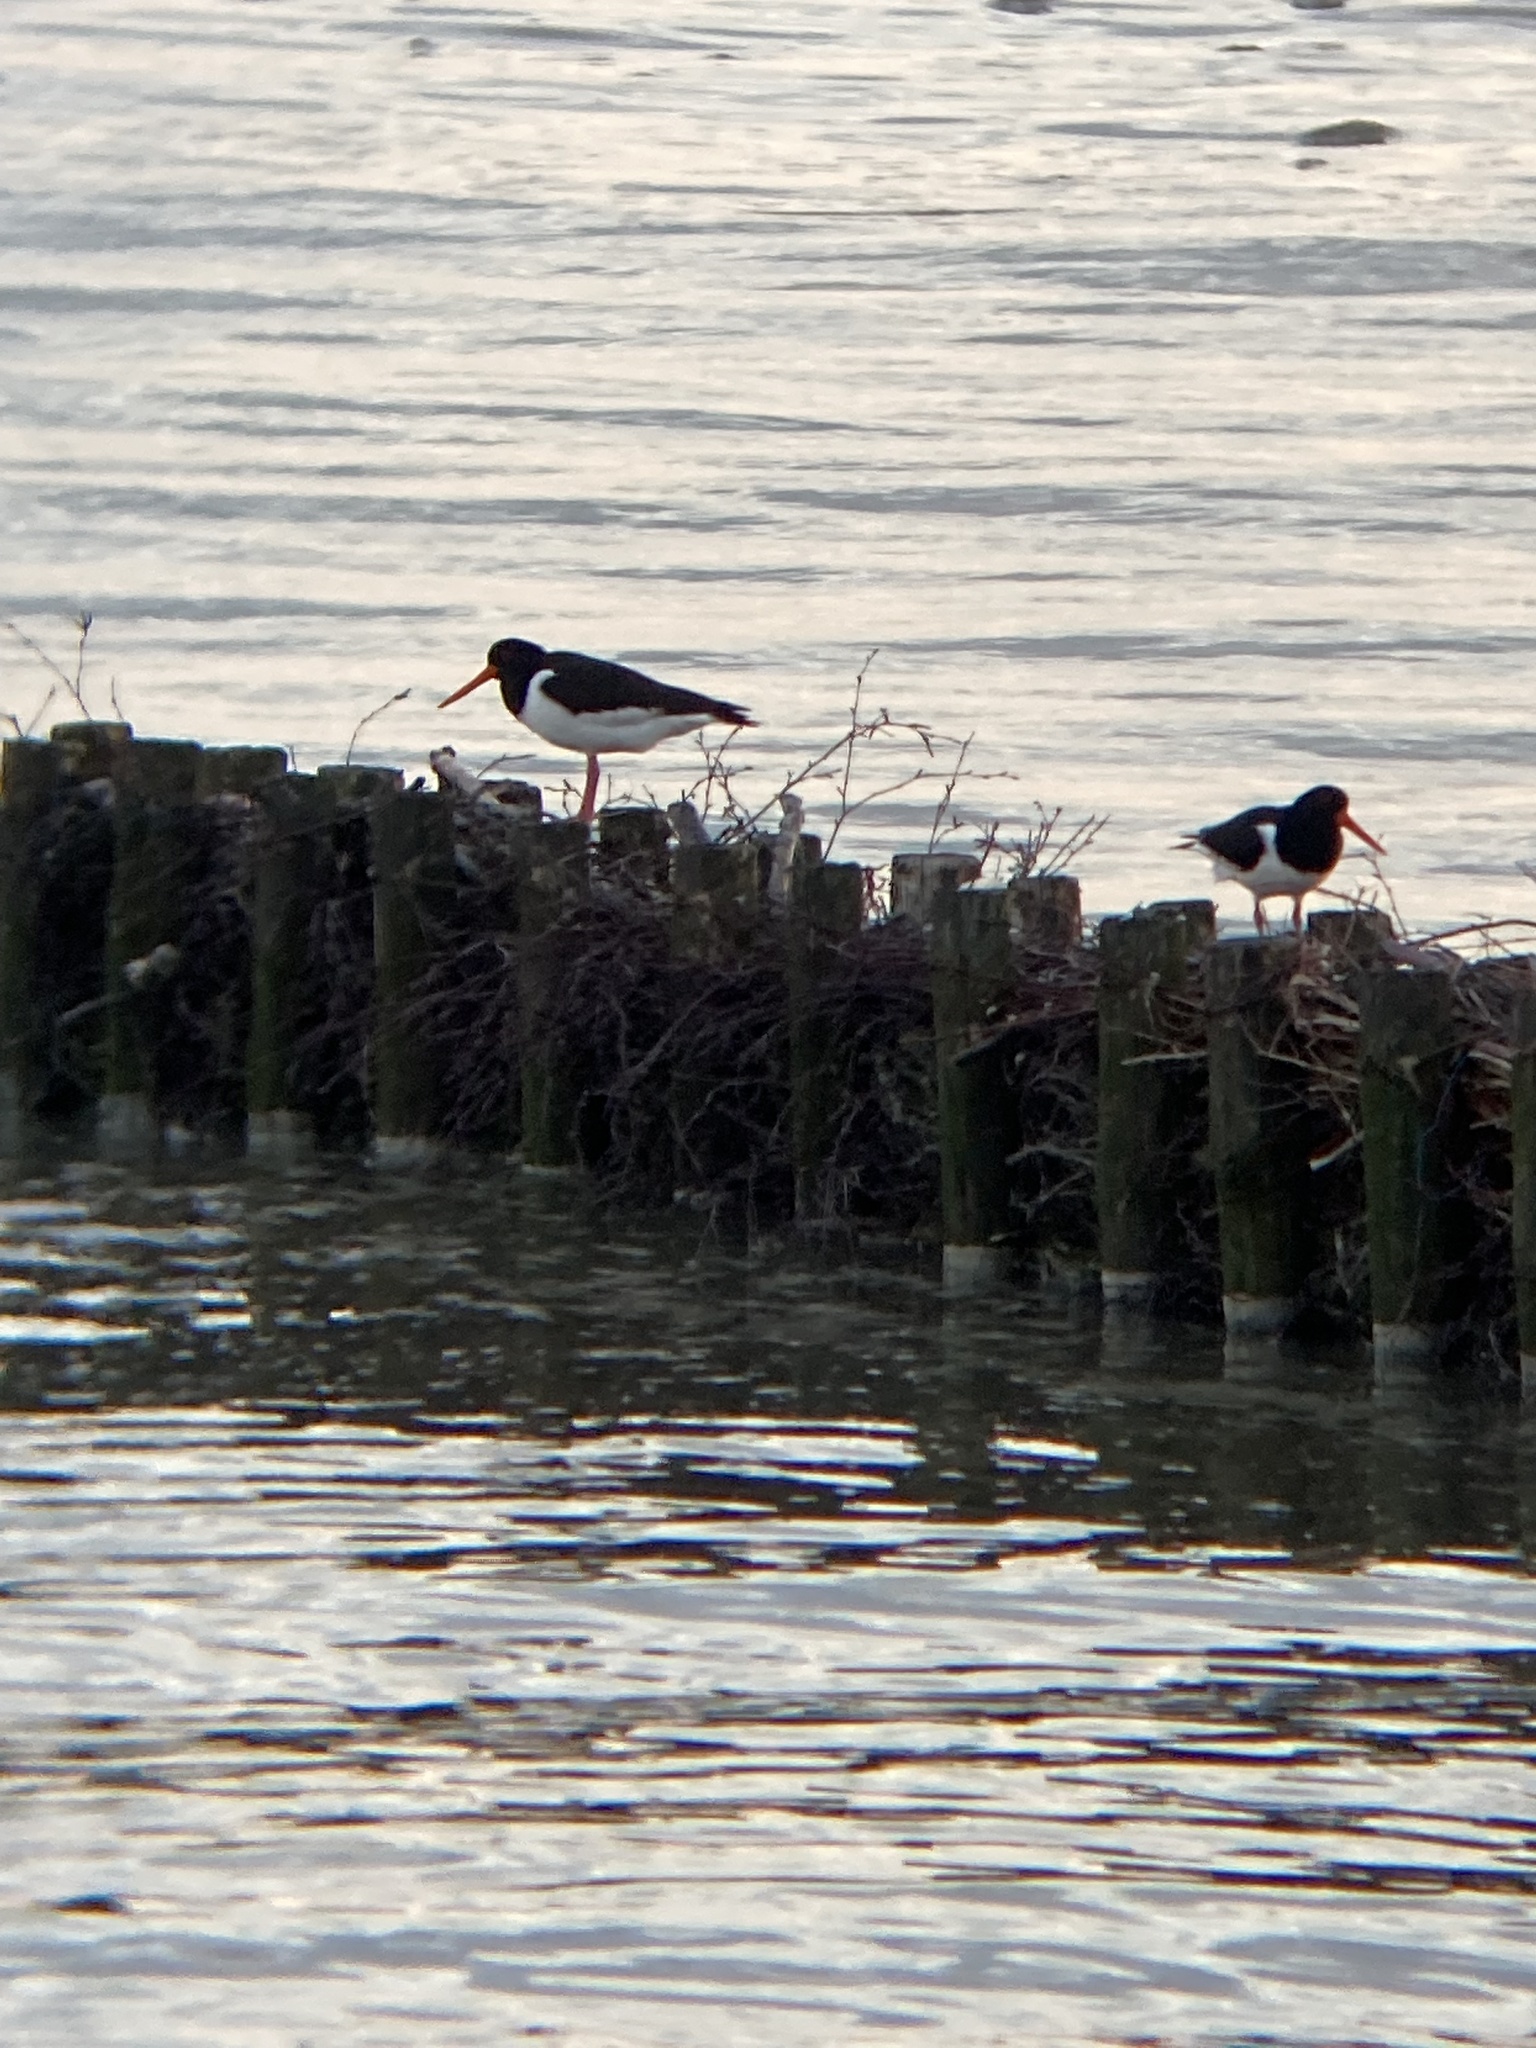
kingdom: Animalia
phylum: Chordata
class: Aves
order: Charadriiformes
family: Haematopodidae
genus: Haematopus
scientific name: Haematopus ostralegus
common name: Eurasian oystercatcher
